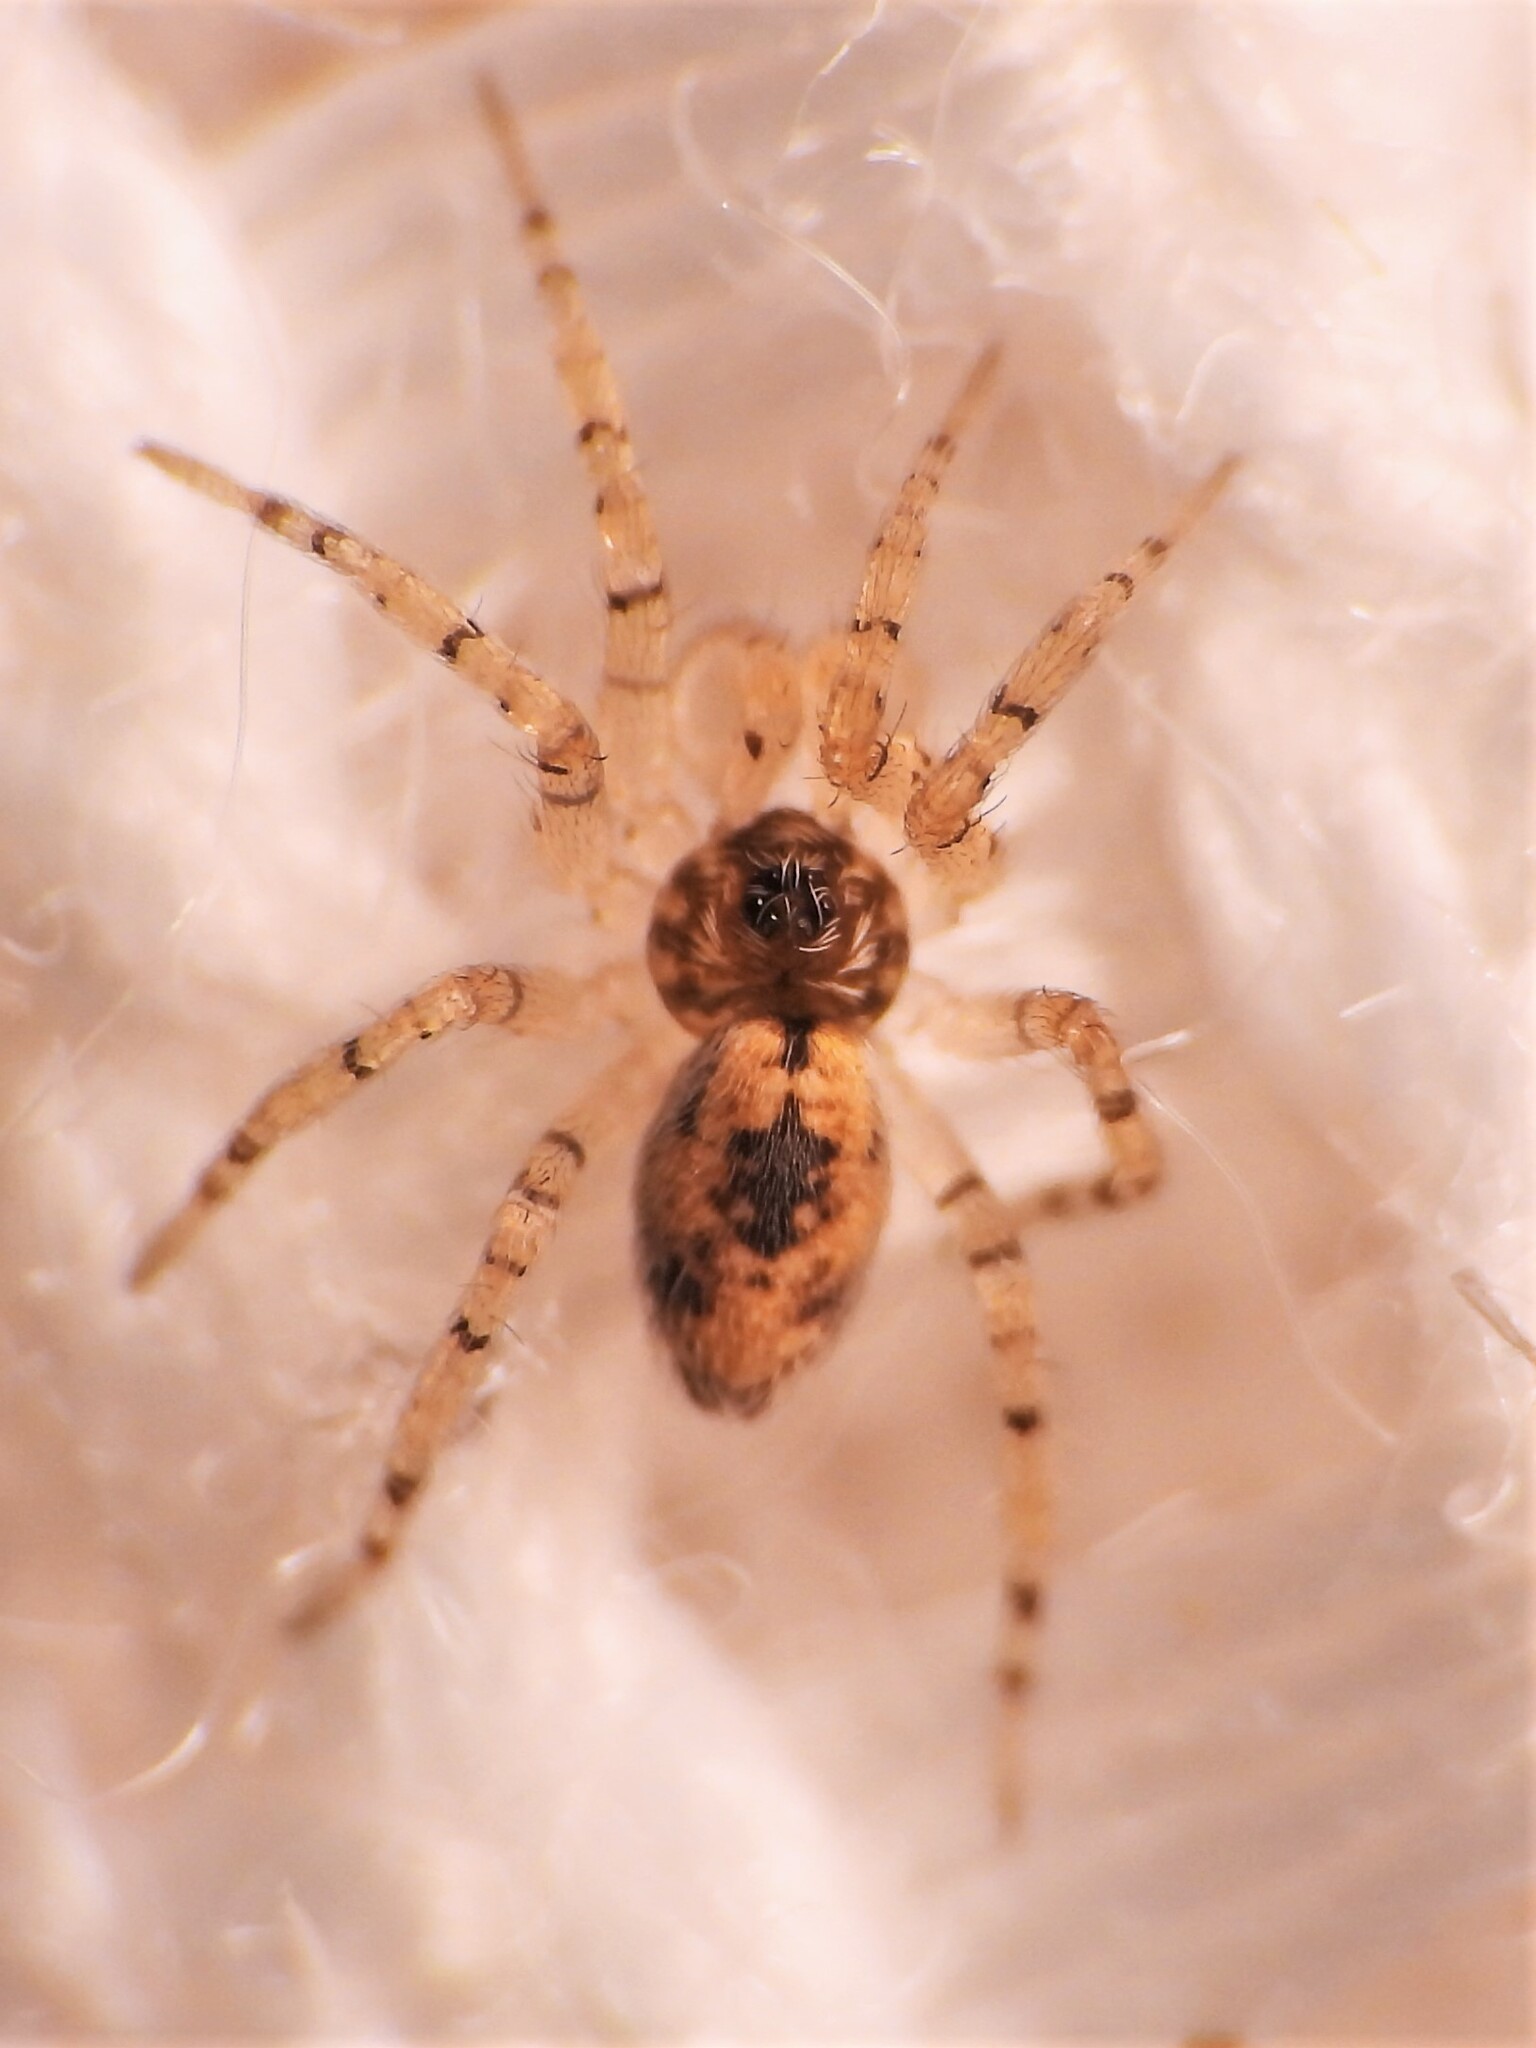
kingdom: Animalia
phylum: Arthropoda
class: Arachnida
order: Araneae
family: Oecobiidae
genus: Oecobius
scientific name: Oecobius maculatus
